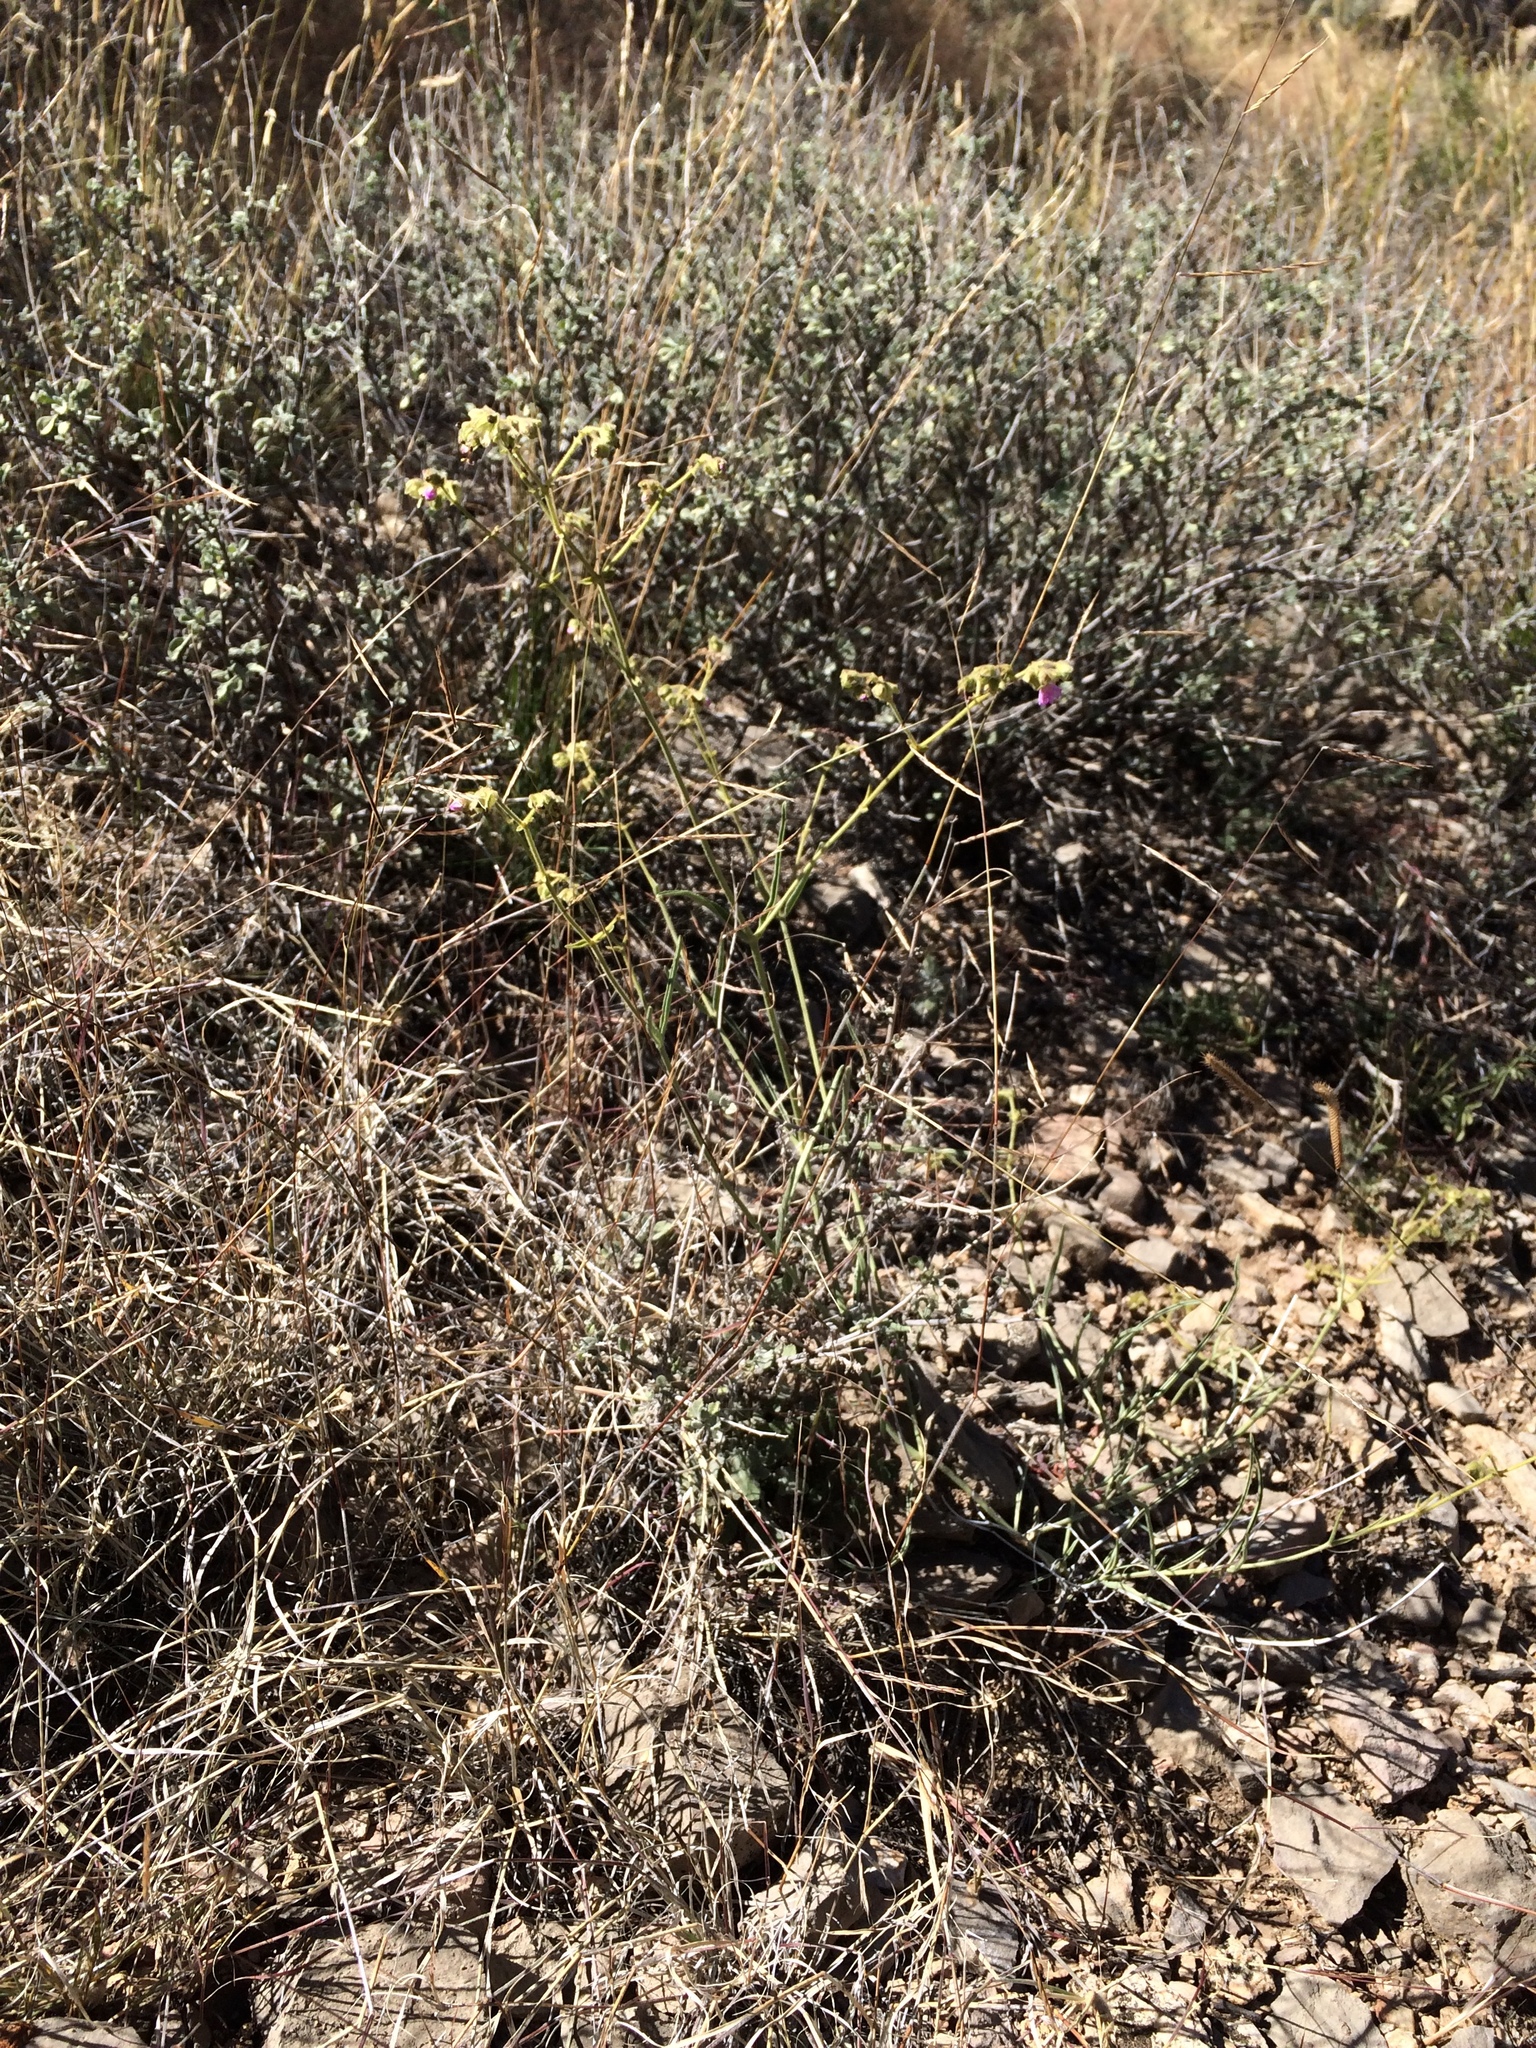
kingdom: Plantae
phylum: Tracheophyta
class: Magnoliopsida
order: Caryophyllales
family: Nyctaginaceae
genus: Mirabilis
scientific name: Mirabilis linearis
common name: Linear-leaved four-o'clock
